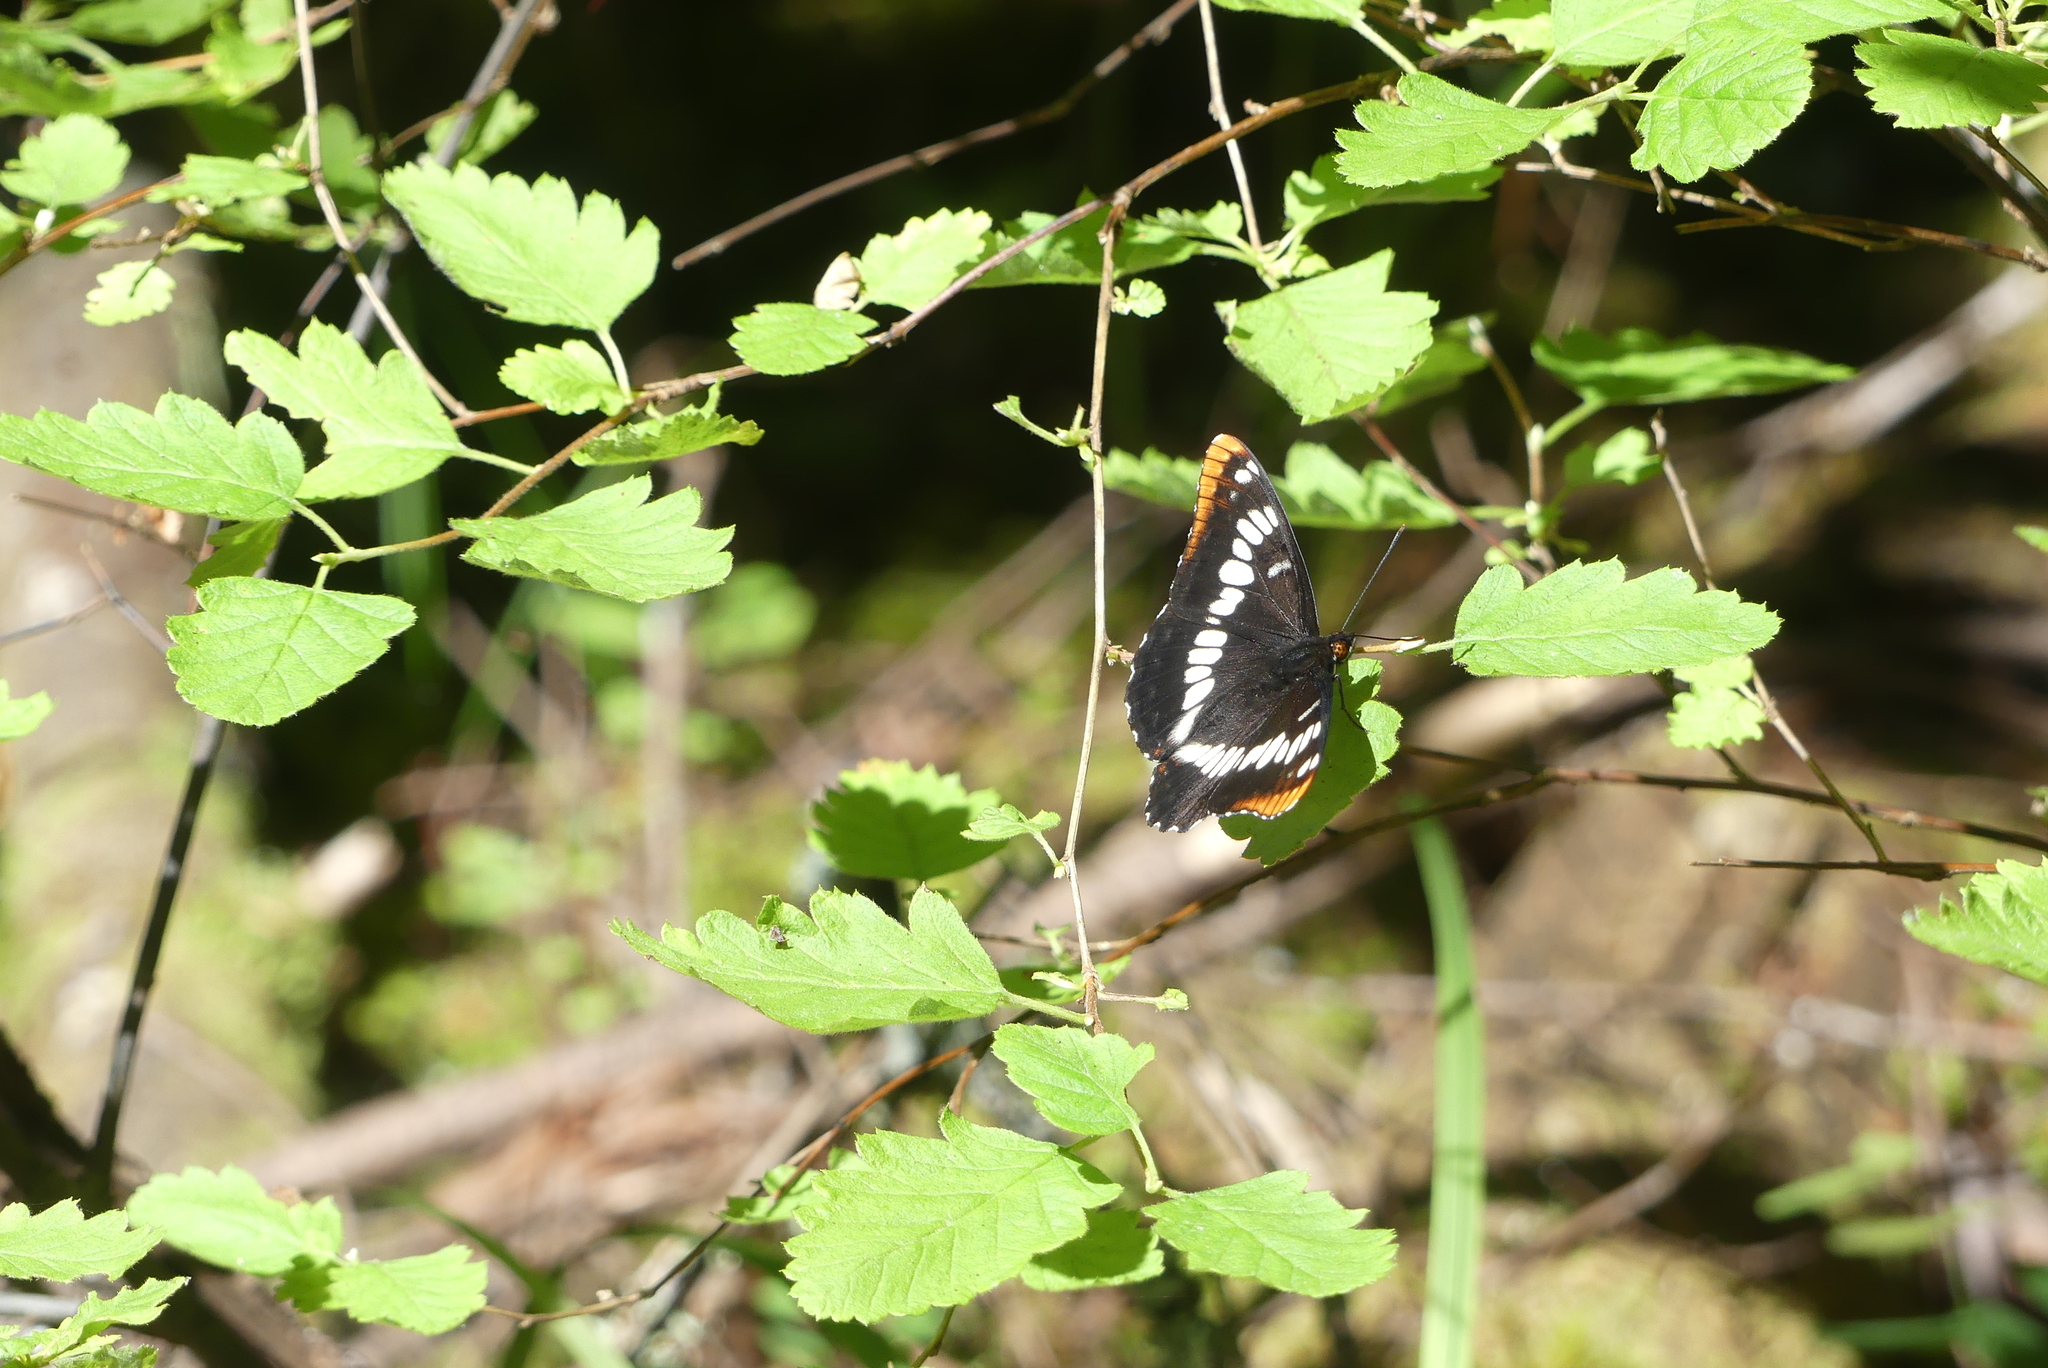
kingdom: Animalia
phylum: Arthropoda
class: Insecta
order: Lepidoptera
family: Nymphalidae
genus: Limenitis
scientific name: Limenitis lorquini
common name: Lorquin's admiral
